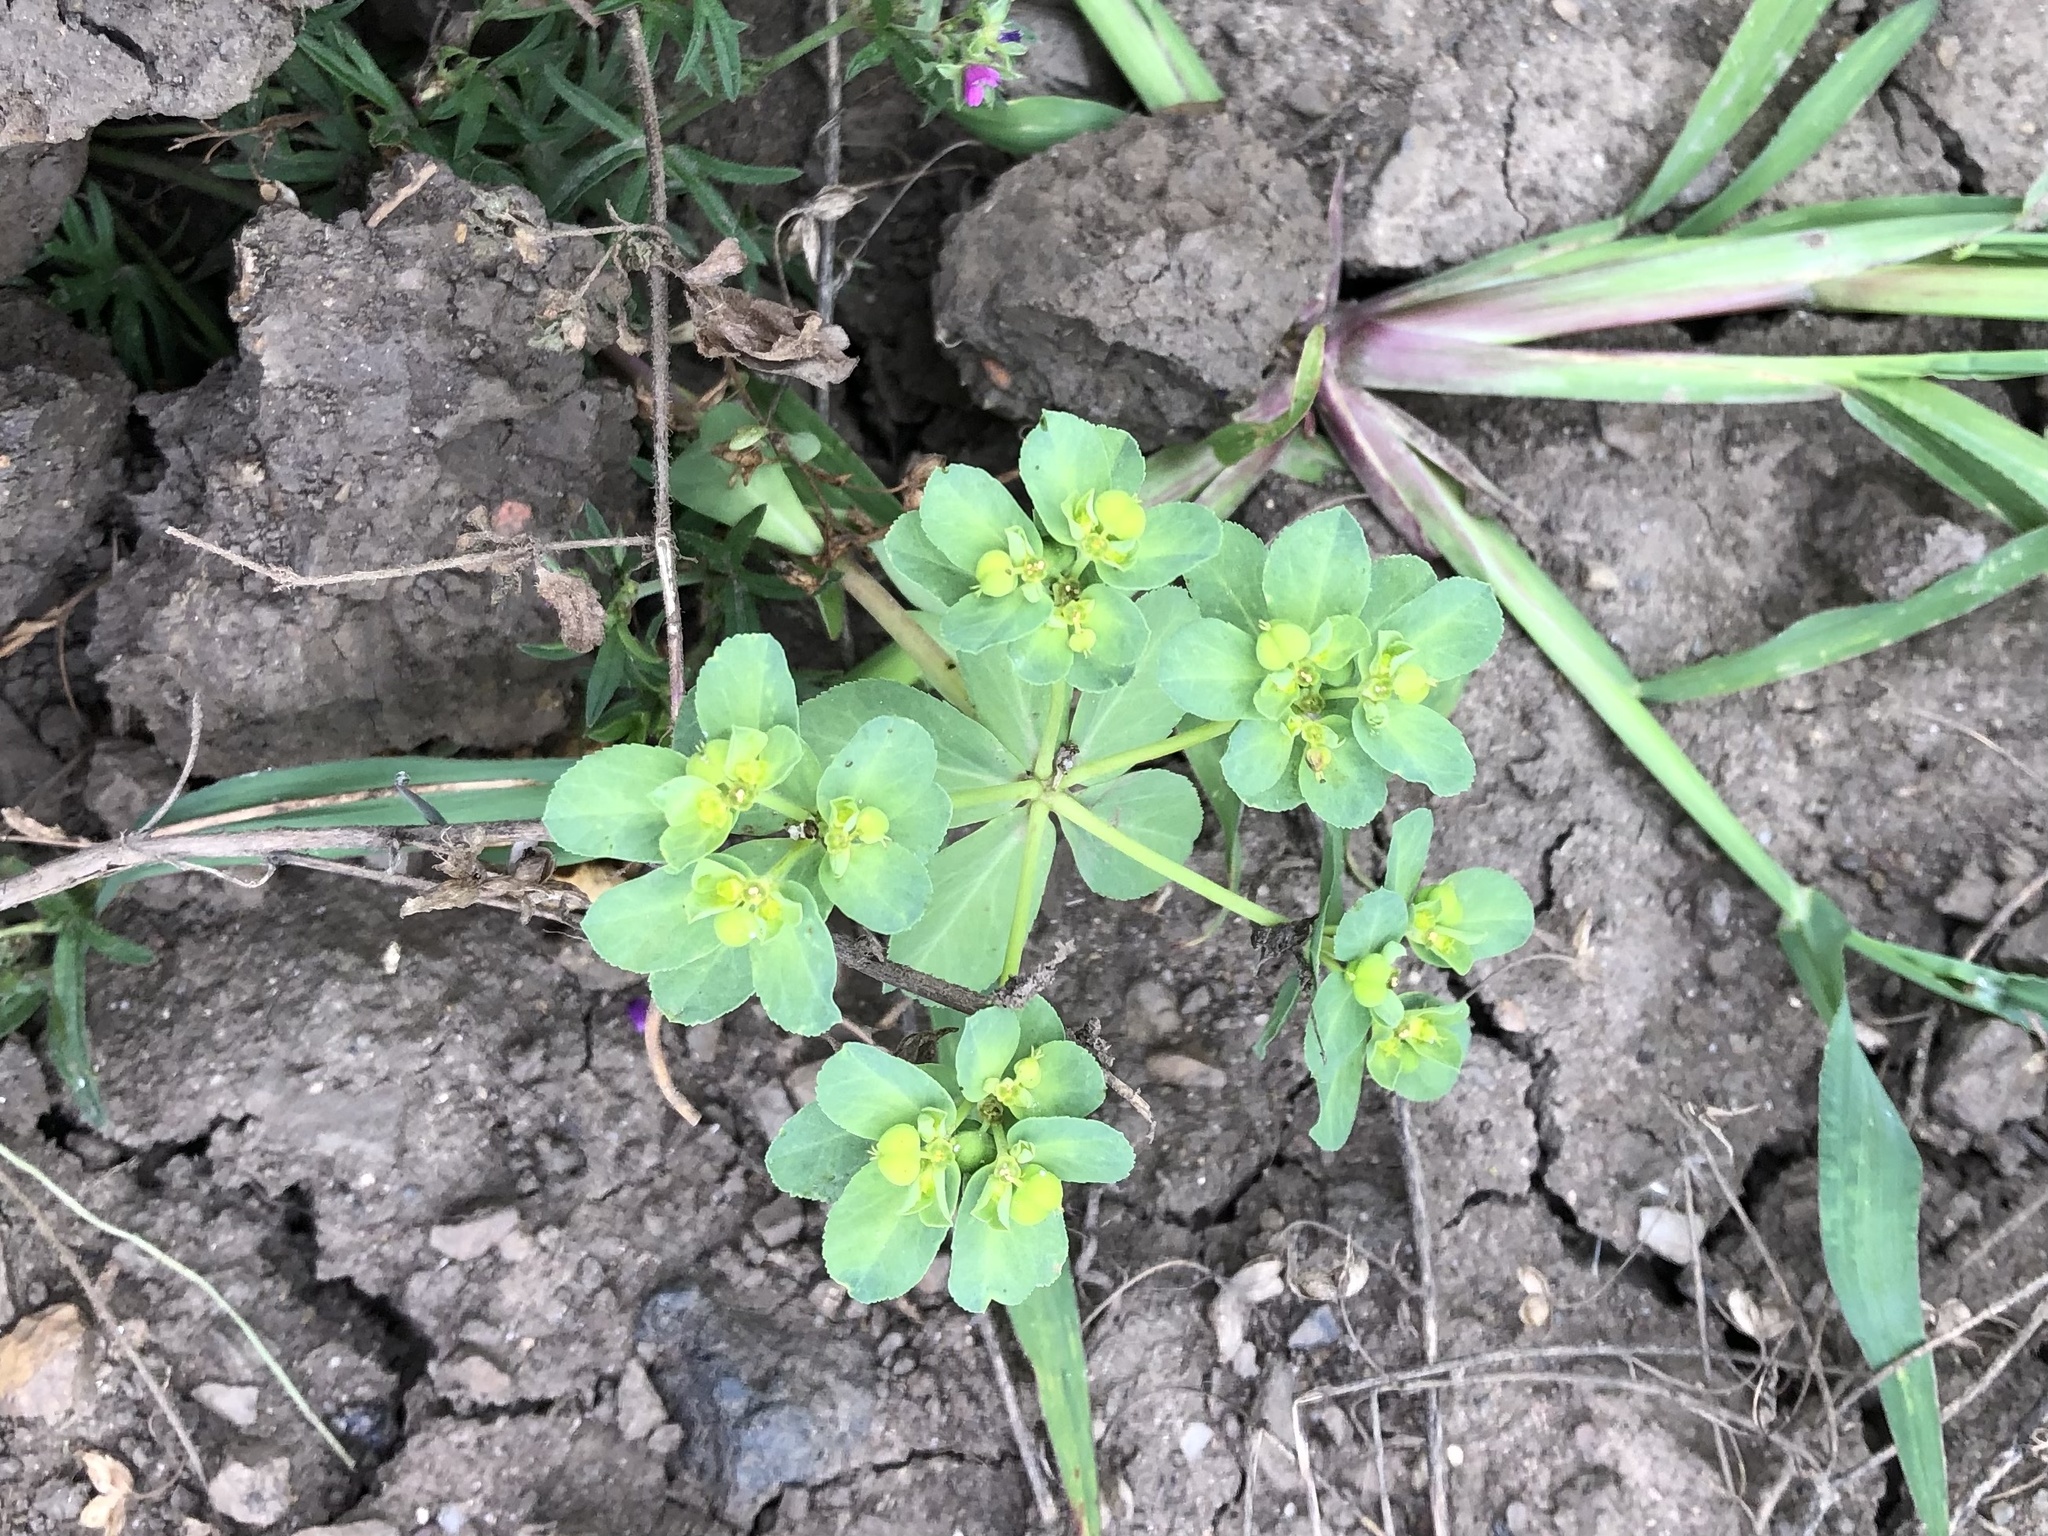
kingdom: Plantae
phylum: Tracheophyta
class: Magnoliopsida
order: Malpighiales
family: Euphorbiaceae
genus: Euphorbia
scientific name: Euphorbia helioscopia
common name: Sun spurge
